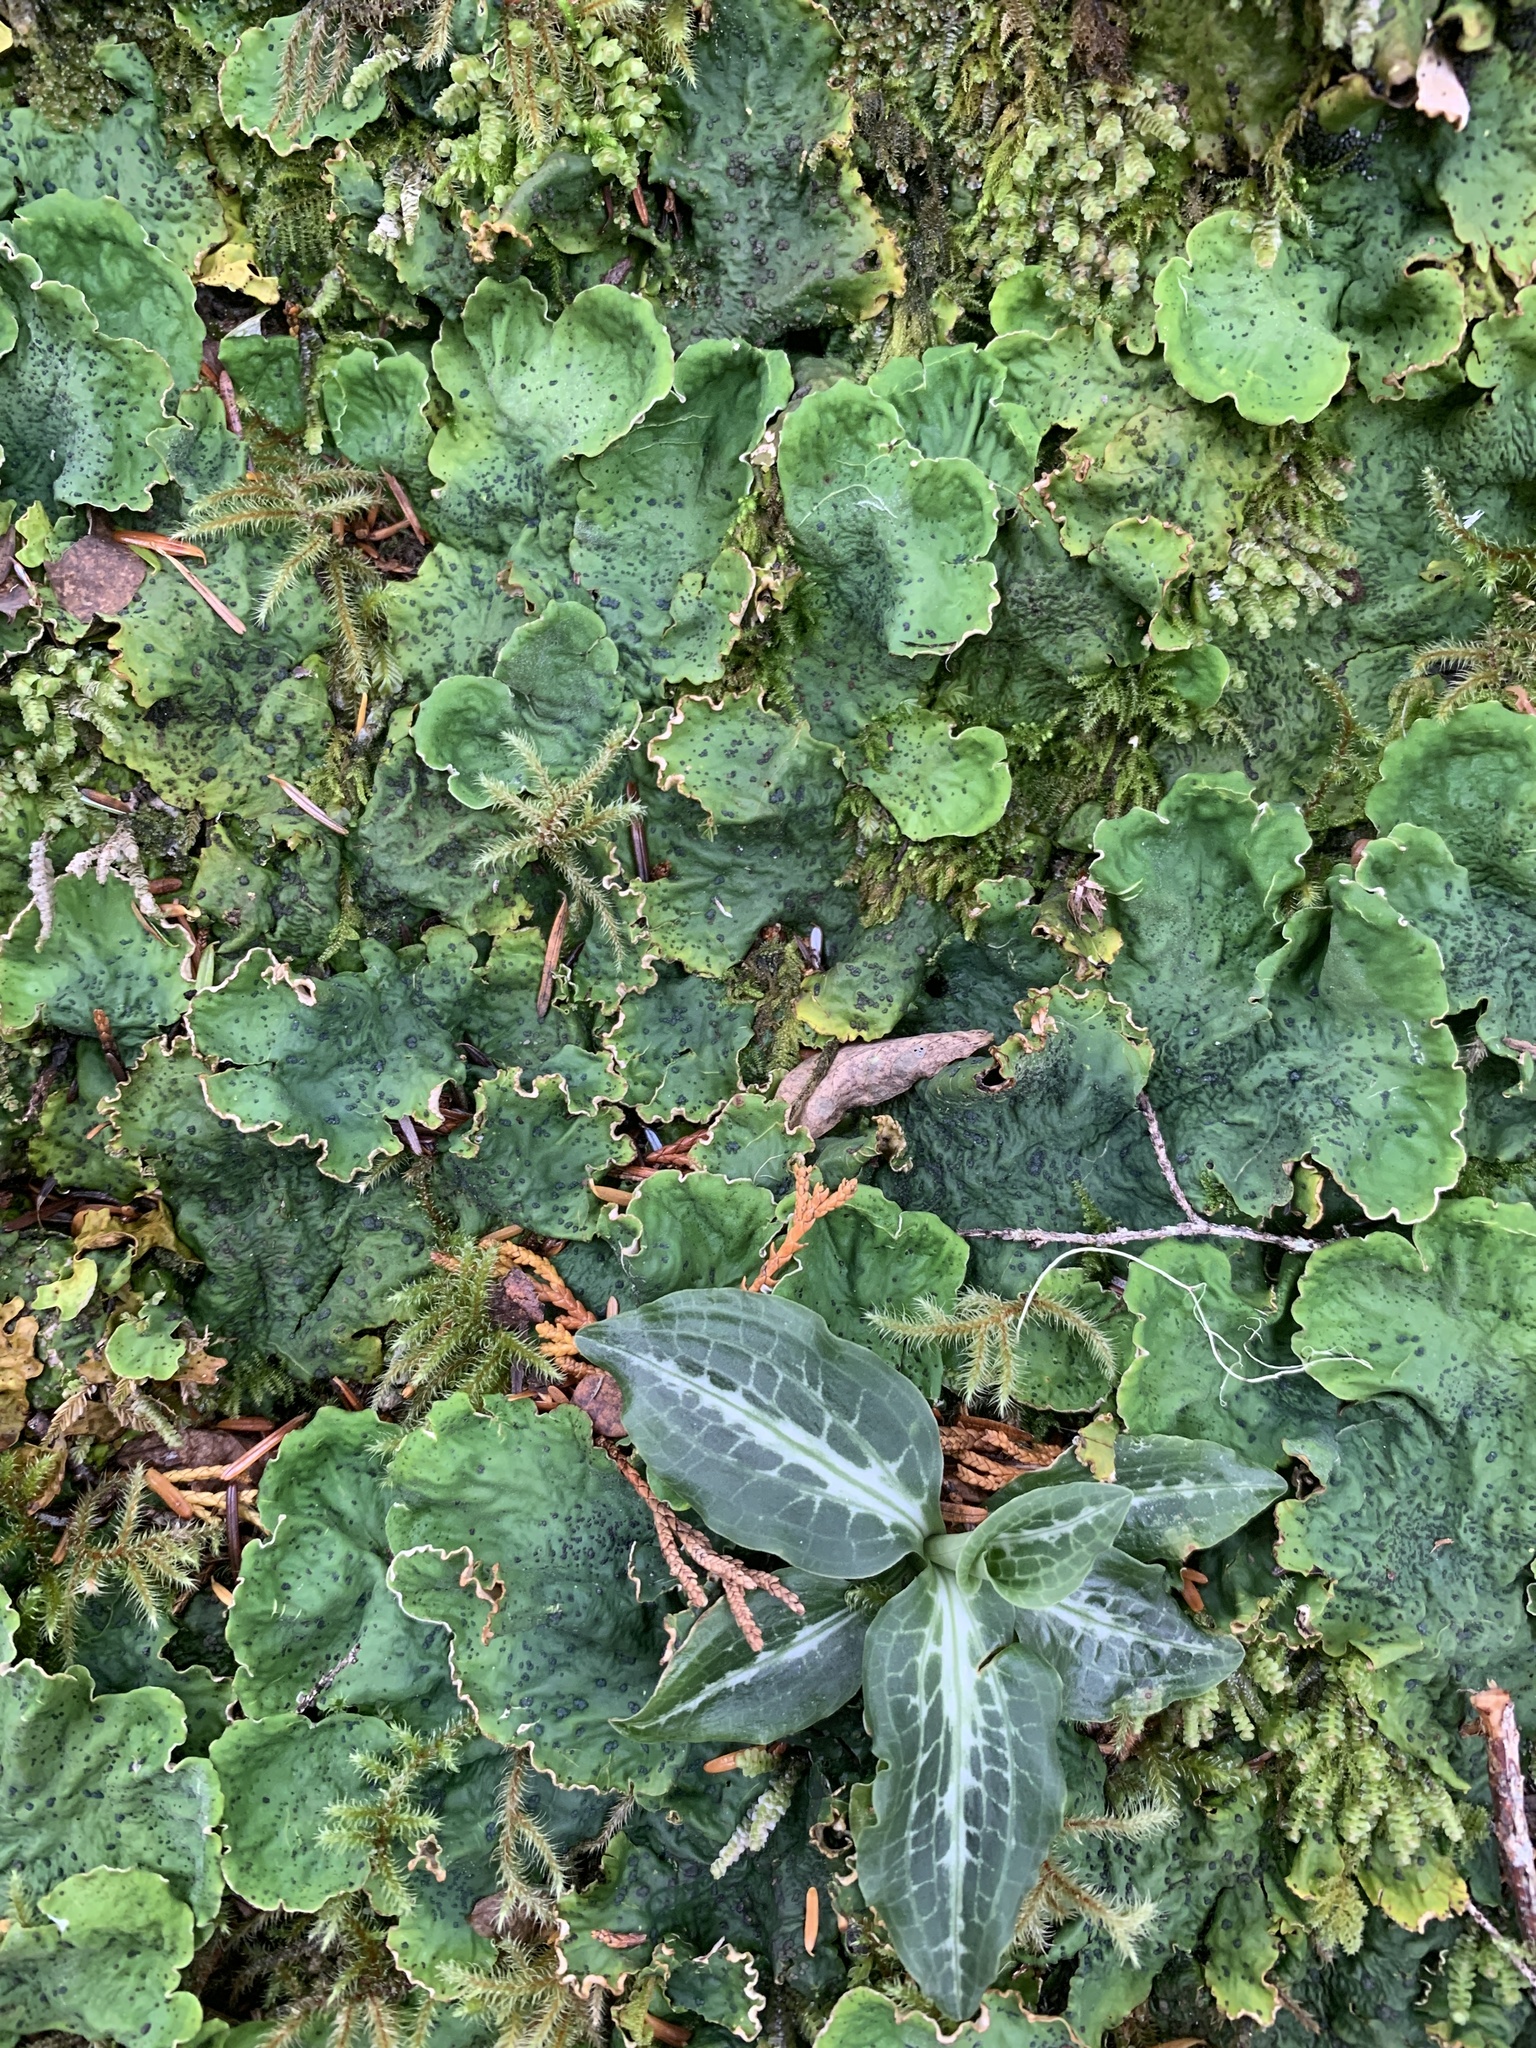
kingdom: Plantae
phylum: Tracheophyta
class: Liliopsida
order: Asparagales
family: Orchidaceae
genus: Goodyera
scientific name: Goodyera oblongifolia
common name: Giant rattlesnake-plantain
